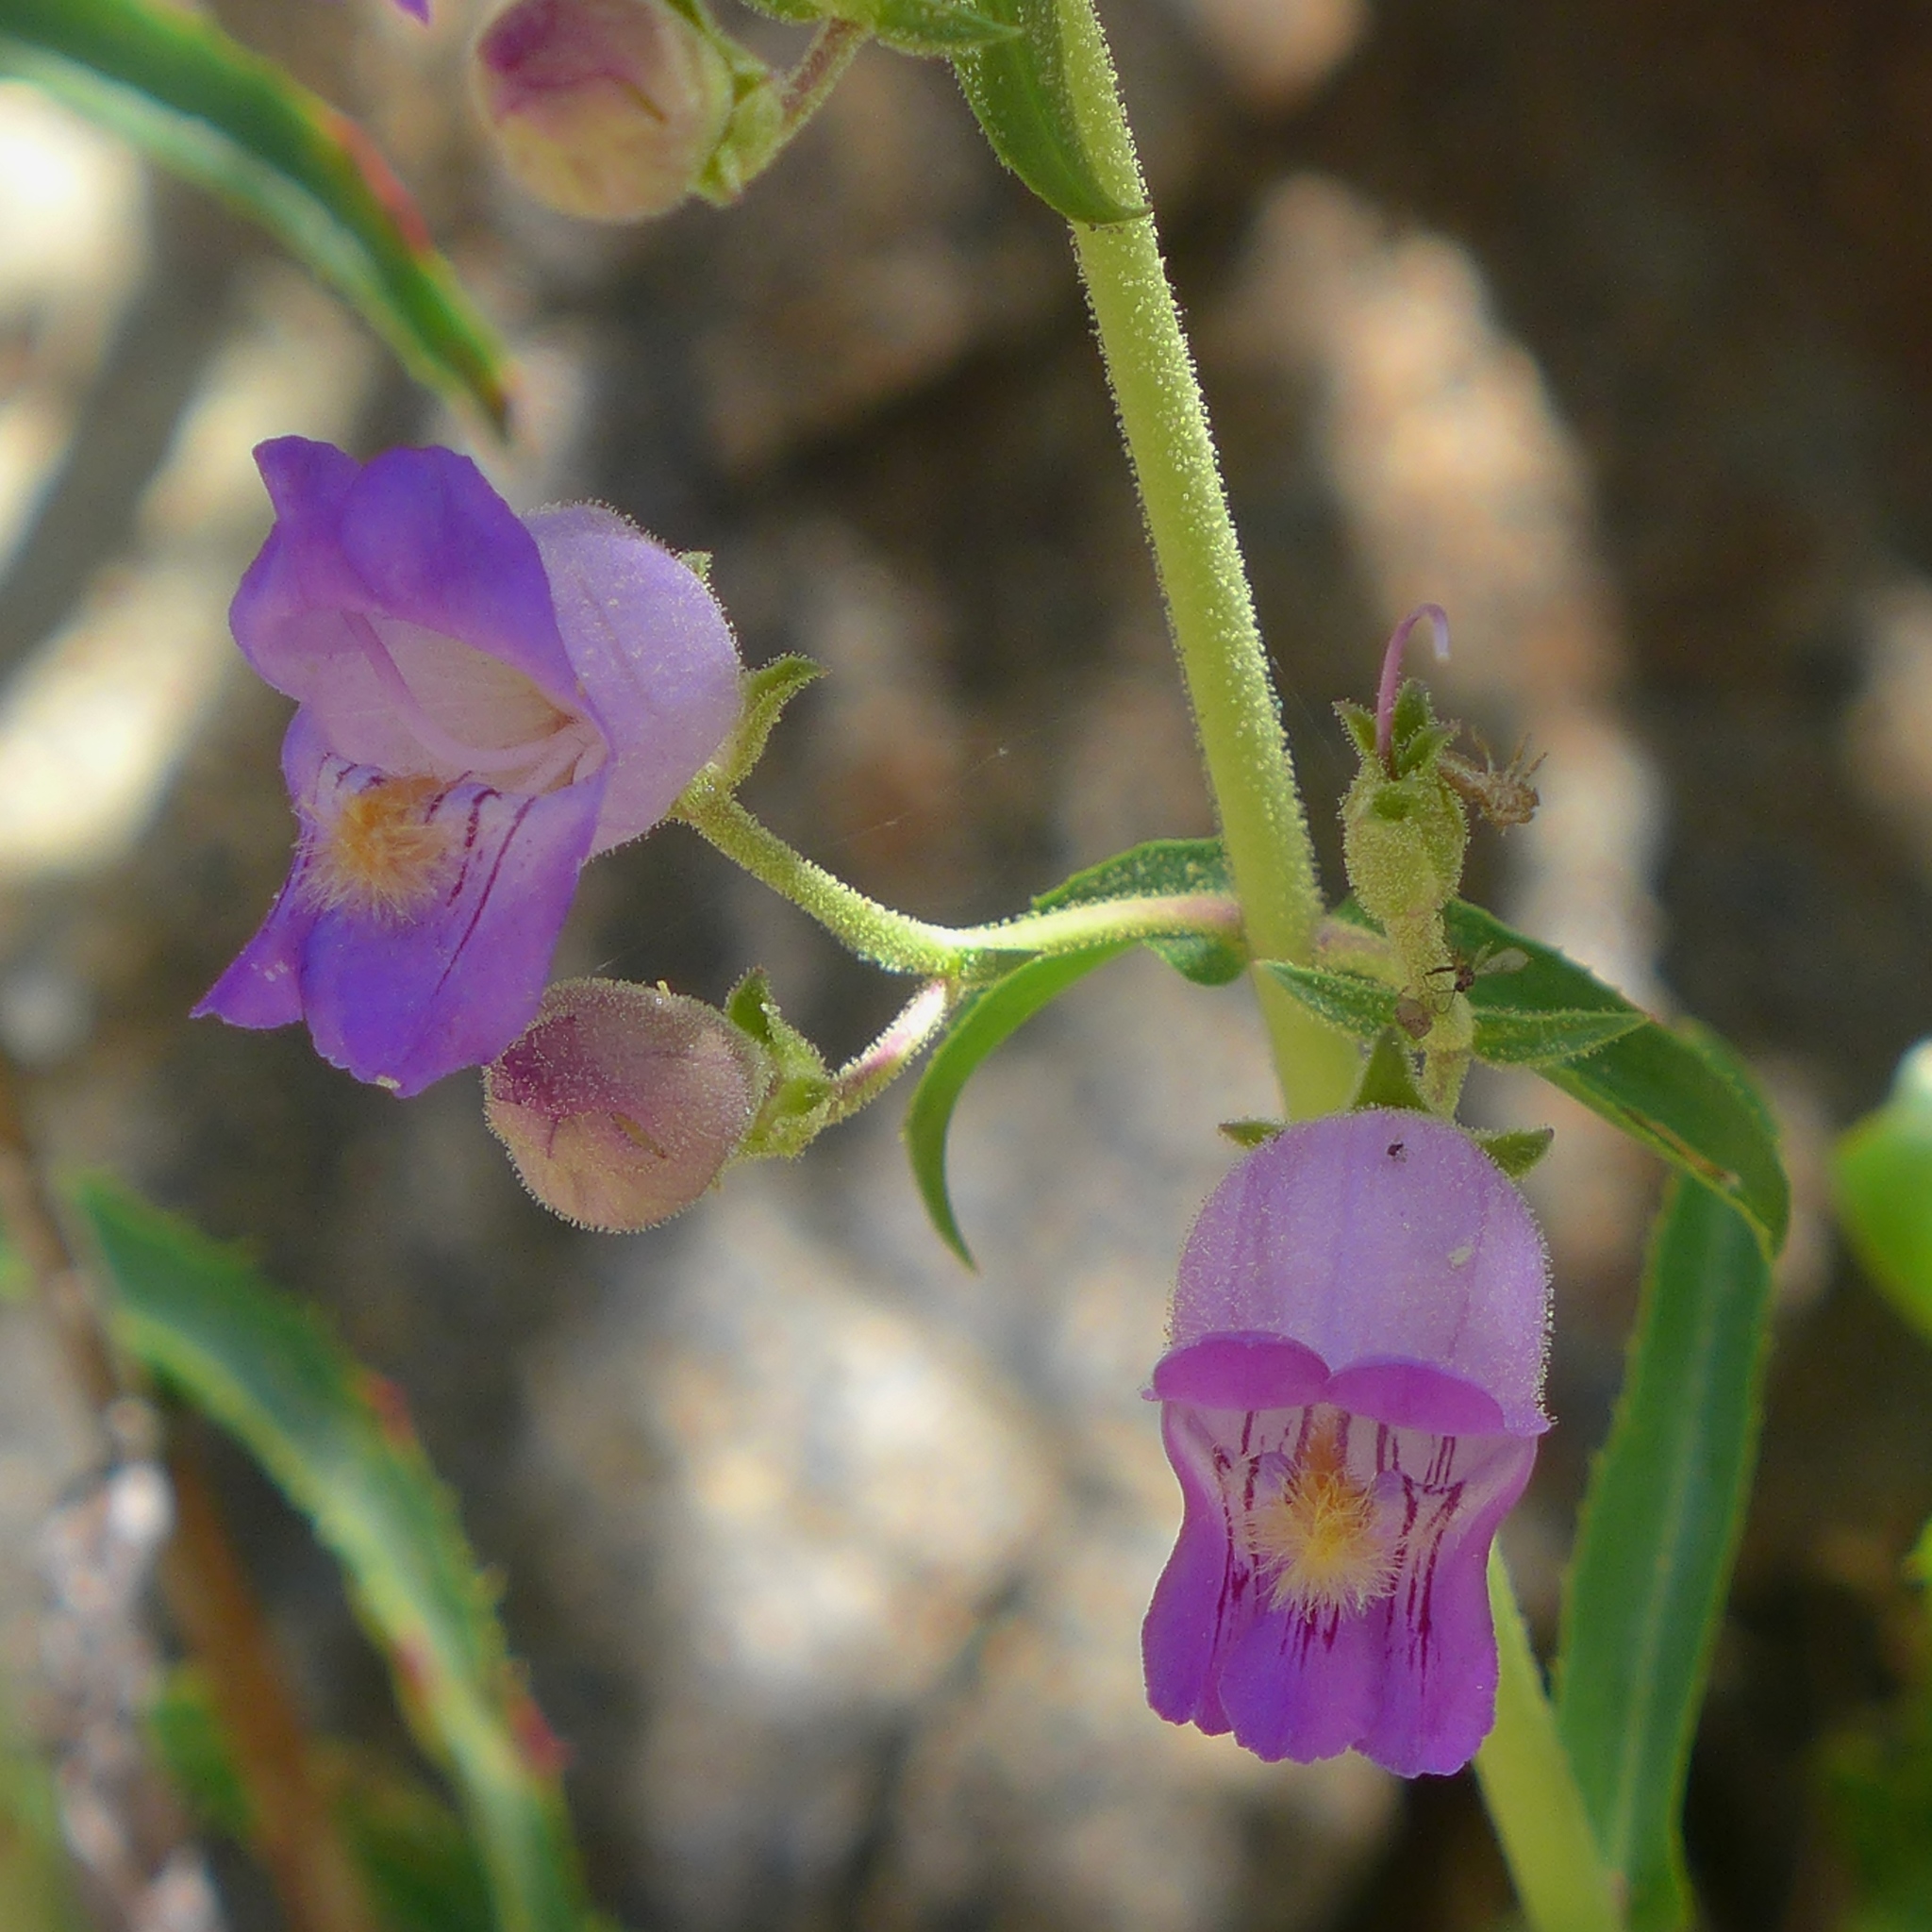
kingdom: Plantae
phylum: Tracheophyta
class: Magnoliopsida
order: Lamiales
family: Plantaginaceae
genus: Penstemon
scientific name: Penstemon grinnellii
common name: Grinnell's beardtongue
